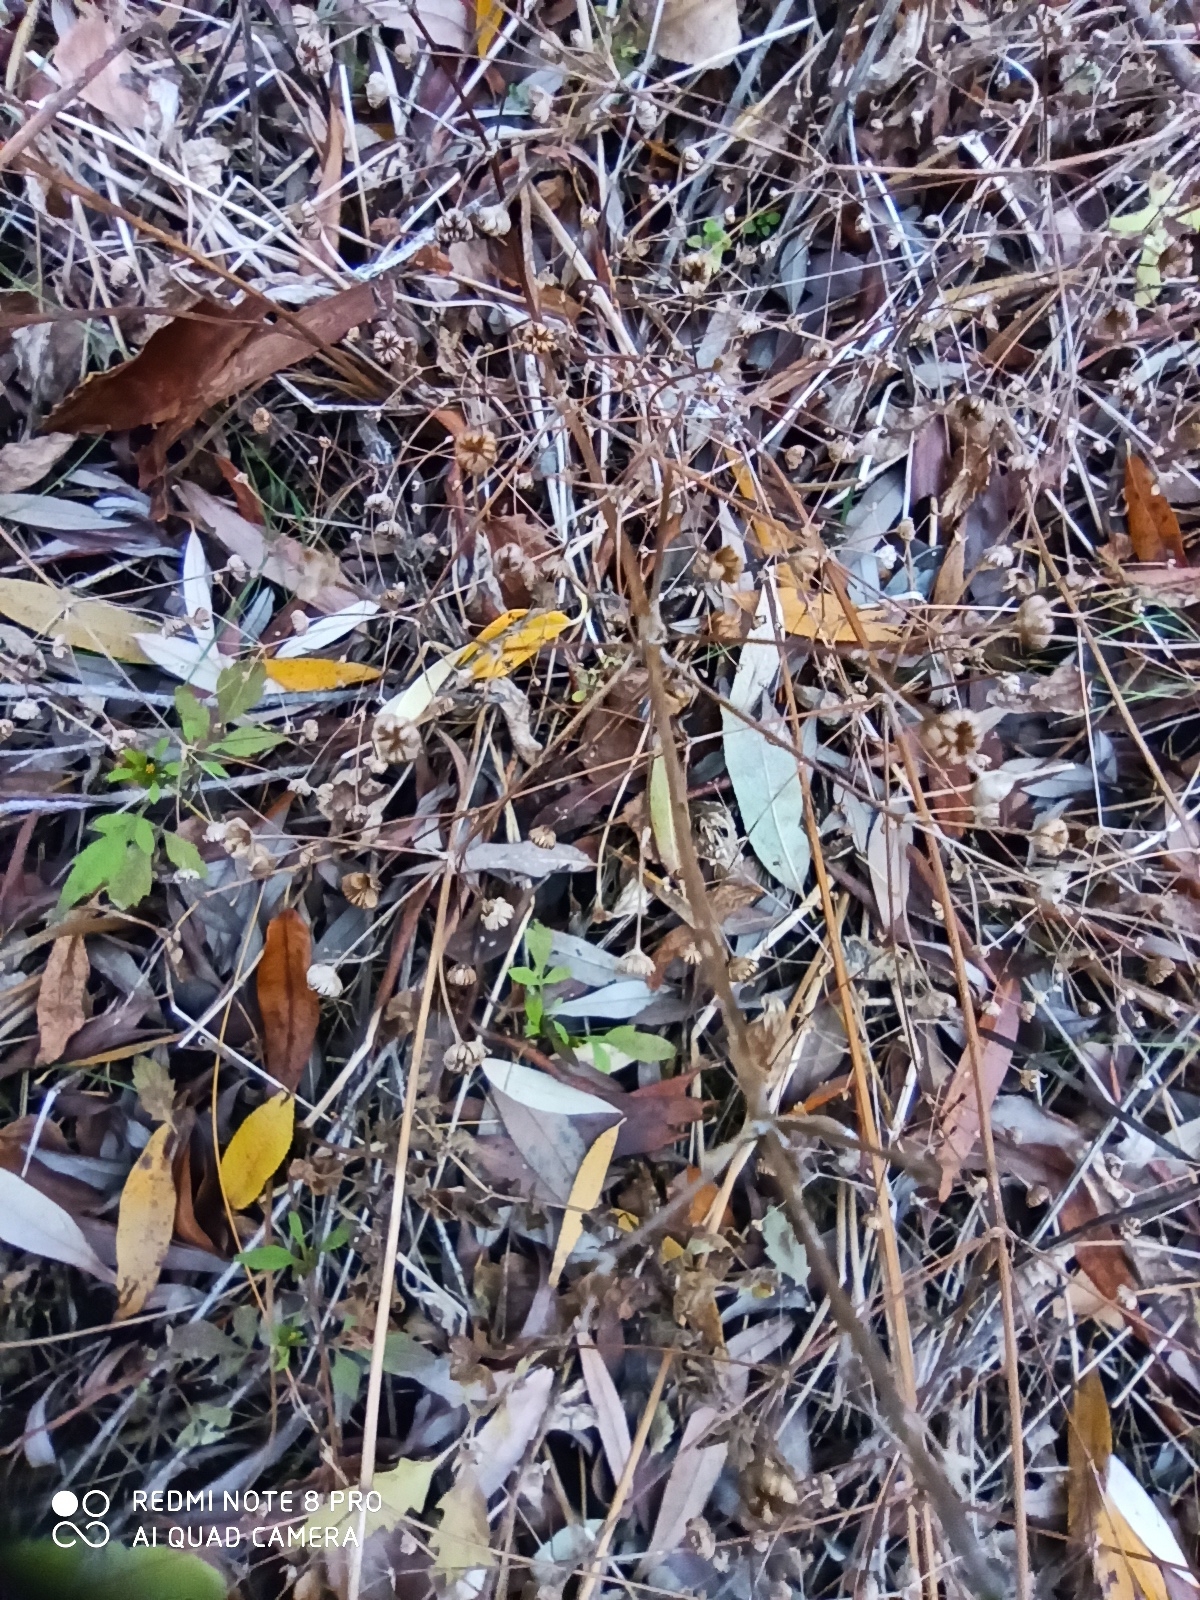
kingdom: Plantae
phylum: Tracheophyta
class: Liliopsida
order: Alismatales
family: Alismataceae
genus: Alisma
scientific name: Alisma plantago-aquatica
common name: Water-plantain
